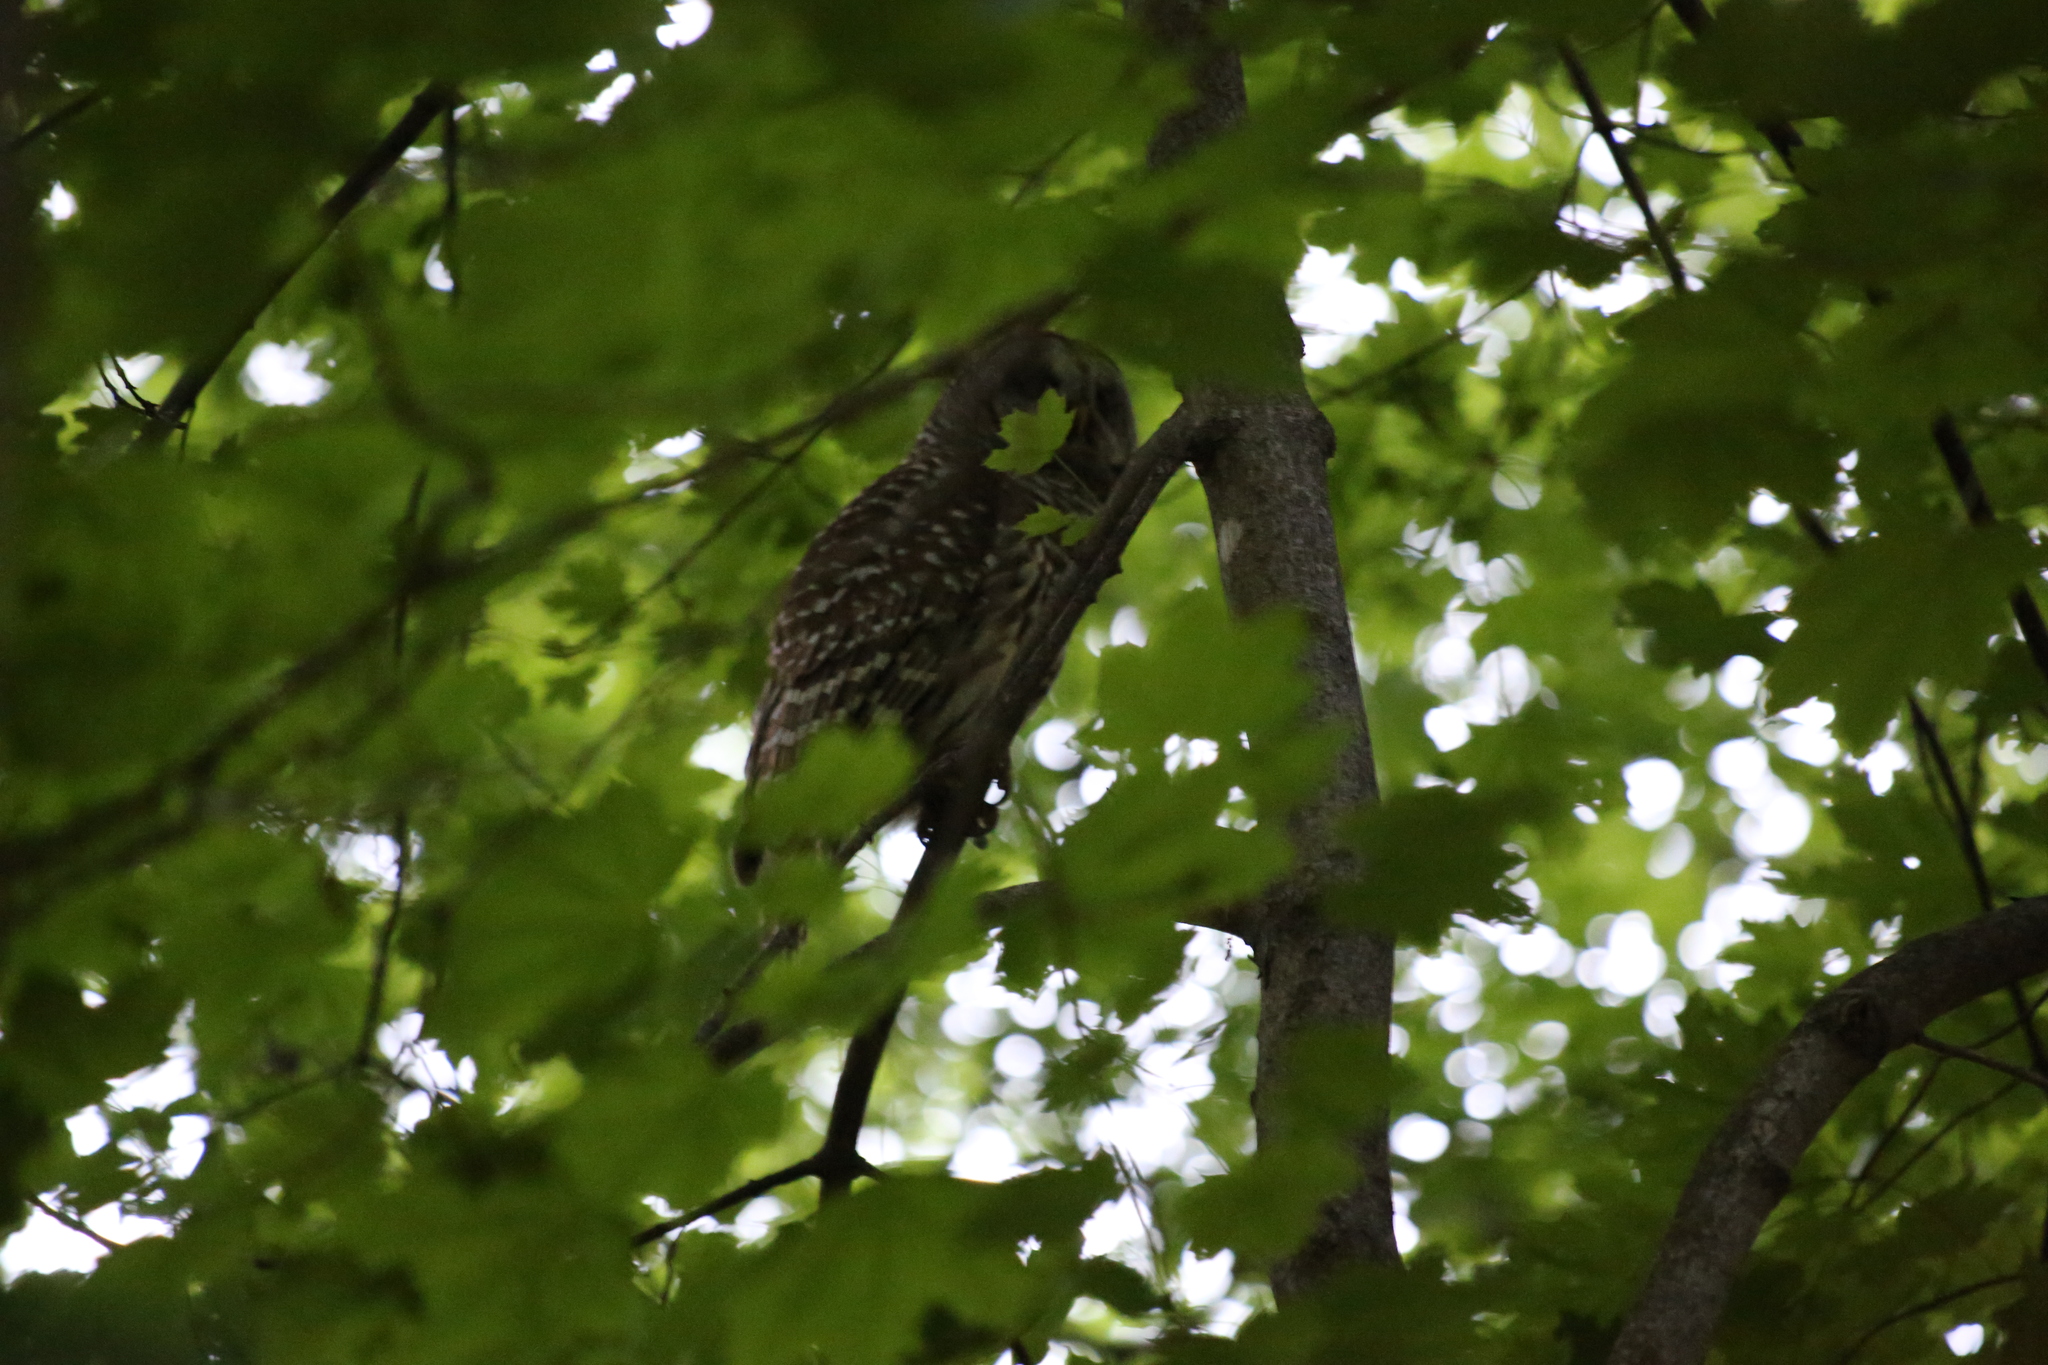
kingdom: Animalia
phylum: Chordata
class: Aves
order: Strigiformes
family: Strigidae
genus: Strix
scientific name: Strix varia
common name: Barred owl
